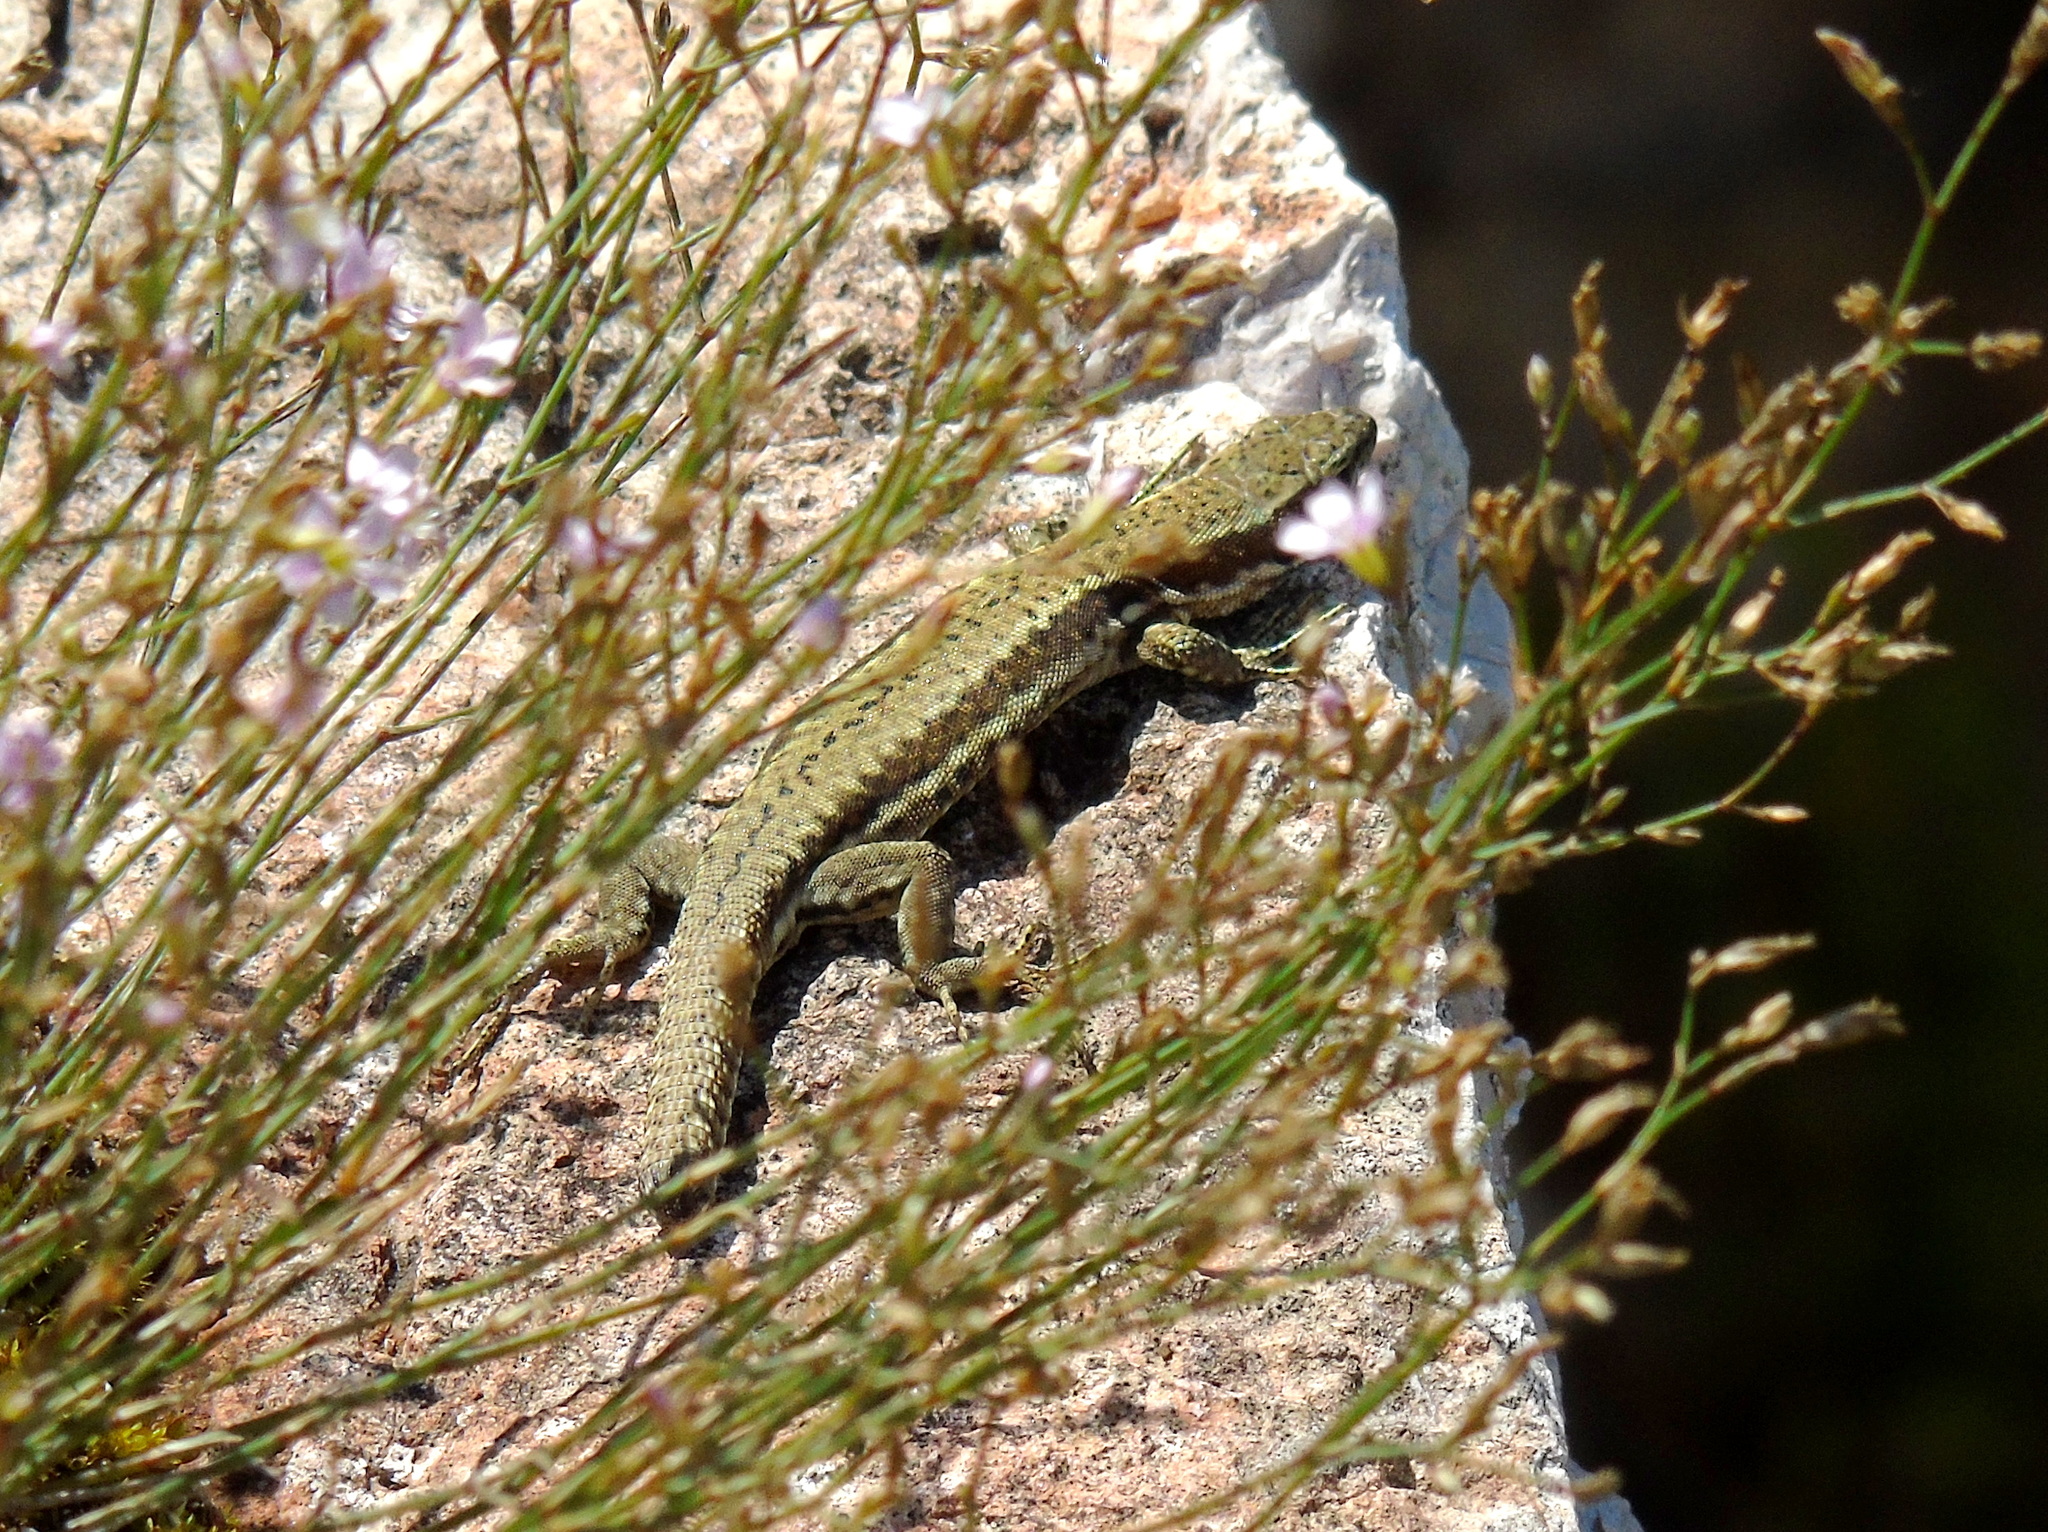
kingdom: Animalia
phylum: Chordata
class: Squamata
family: Lacertidae
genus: Podarcis
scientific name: Podarcis muralis
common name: Common wall lizard
